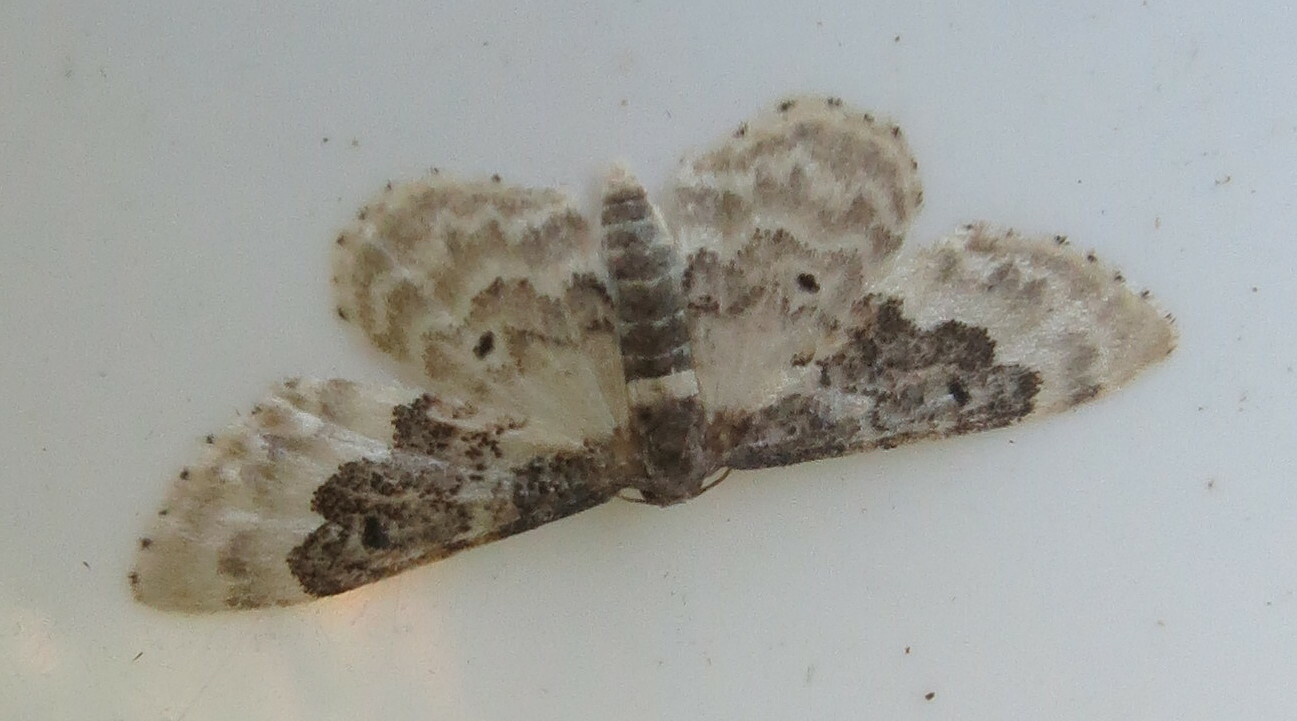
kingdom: Animalia
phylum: Arthropoda
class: Insecta
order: Lepidoptera
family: Geometridae
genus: Idaea
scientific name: Idaea rusticata
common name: Least carpet
